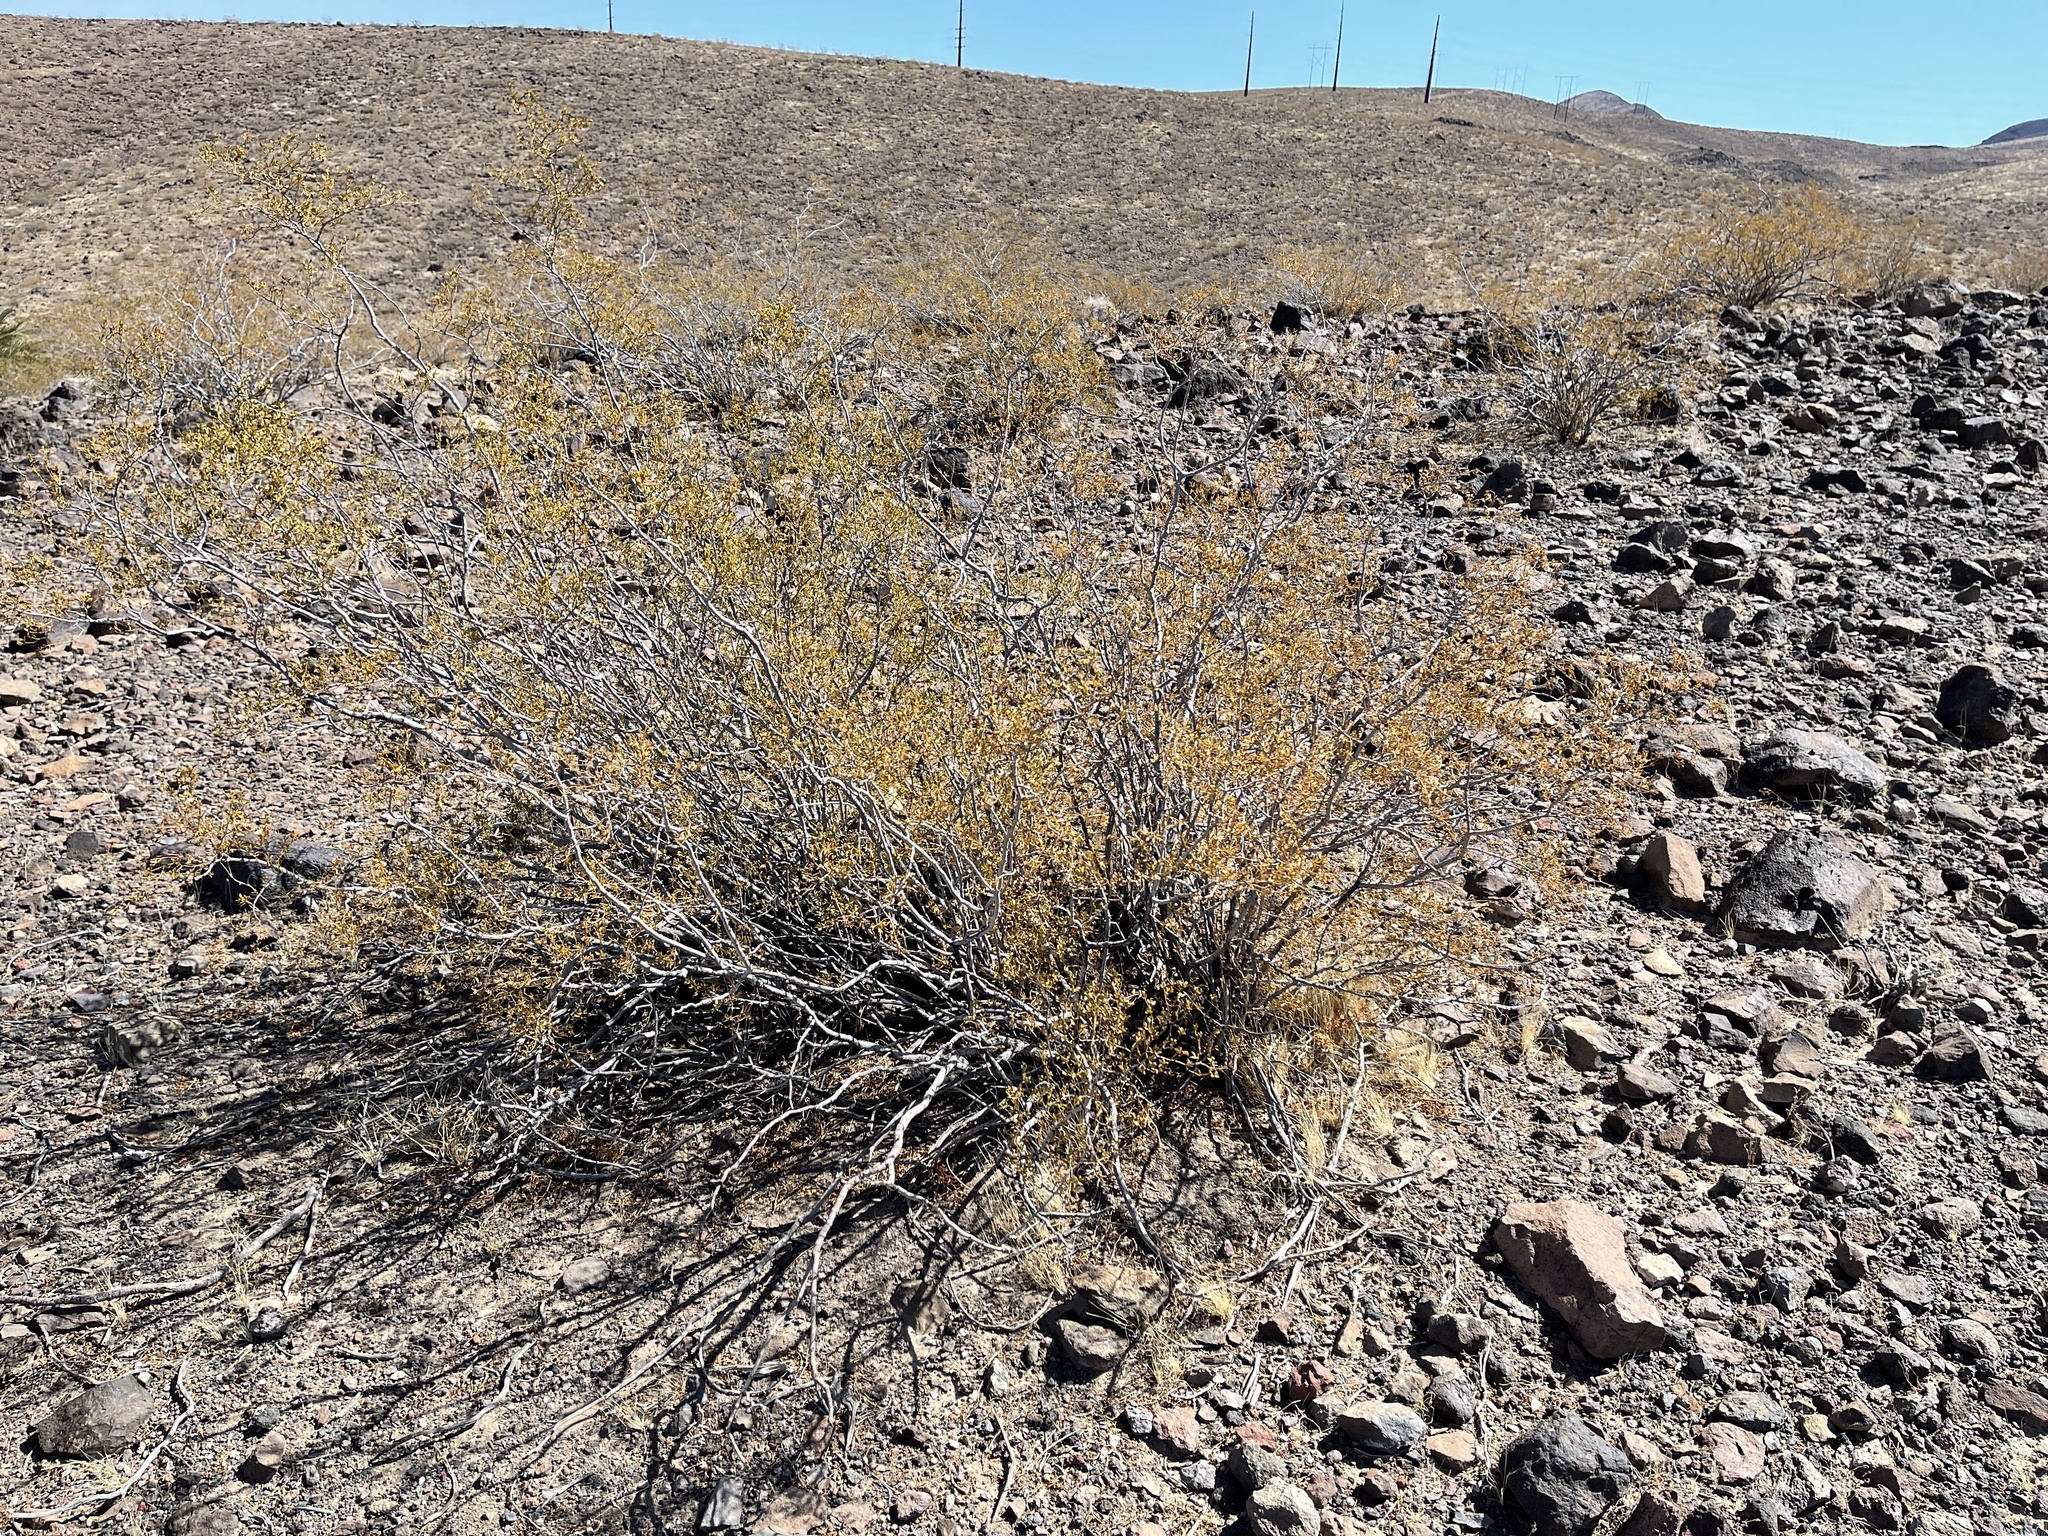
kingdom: Plantae
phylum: Tracheophyta
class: Magnoliopsida
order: Zygophyllales
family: Zygophyllaceae
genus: Larrea
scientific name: Larrea tridentata
